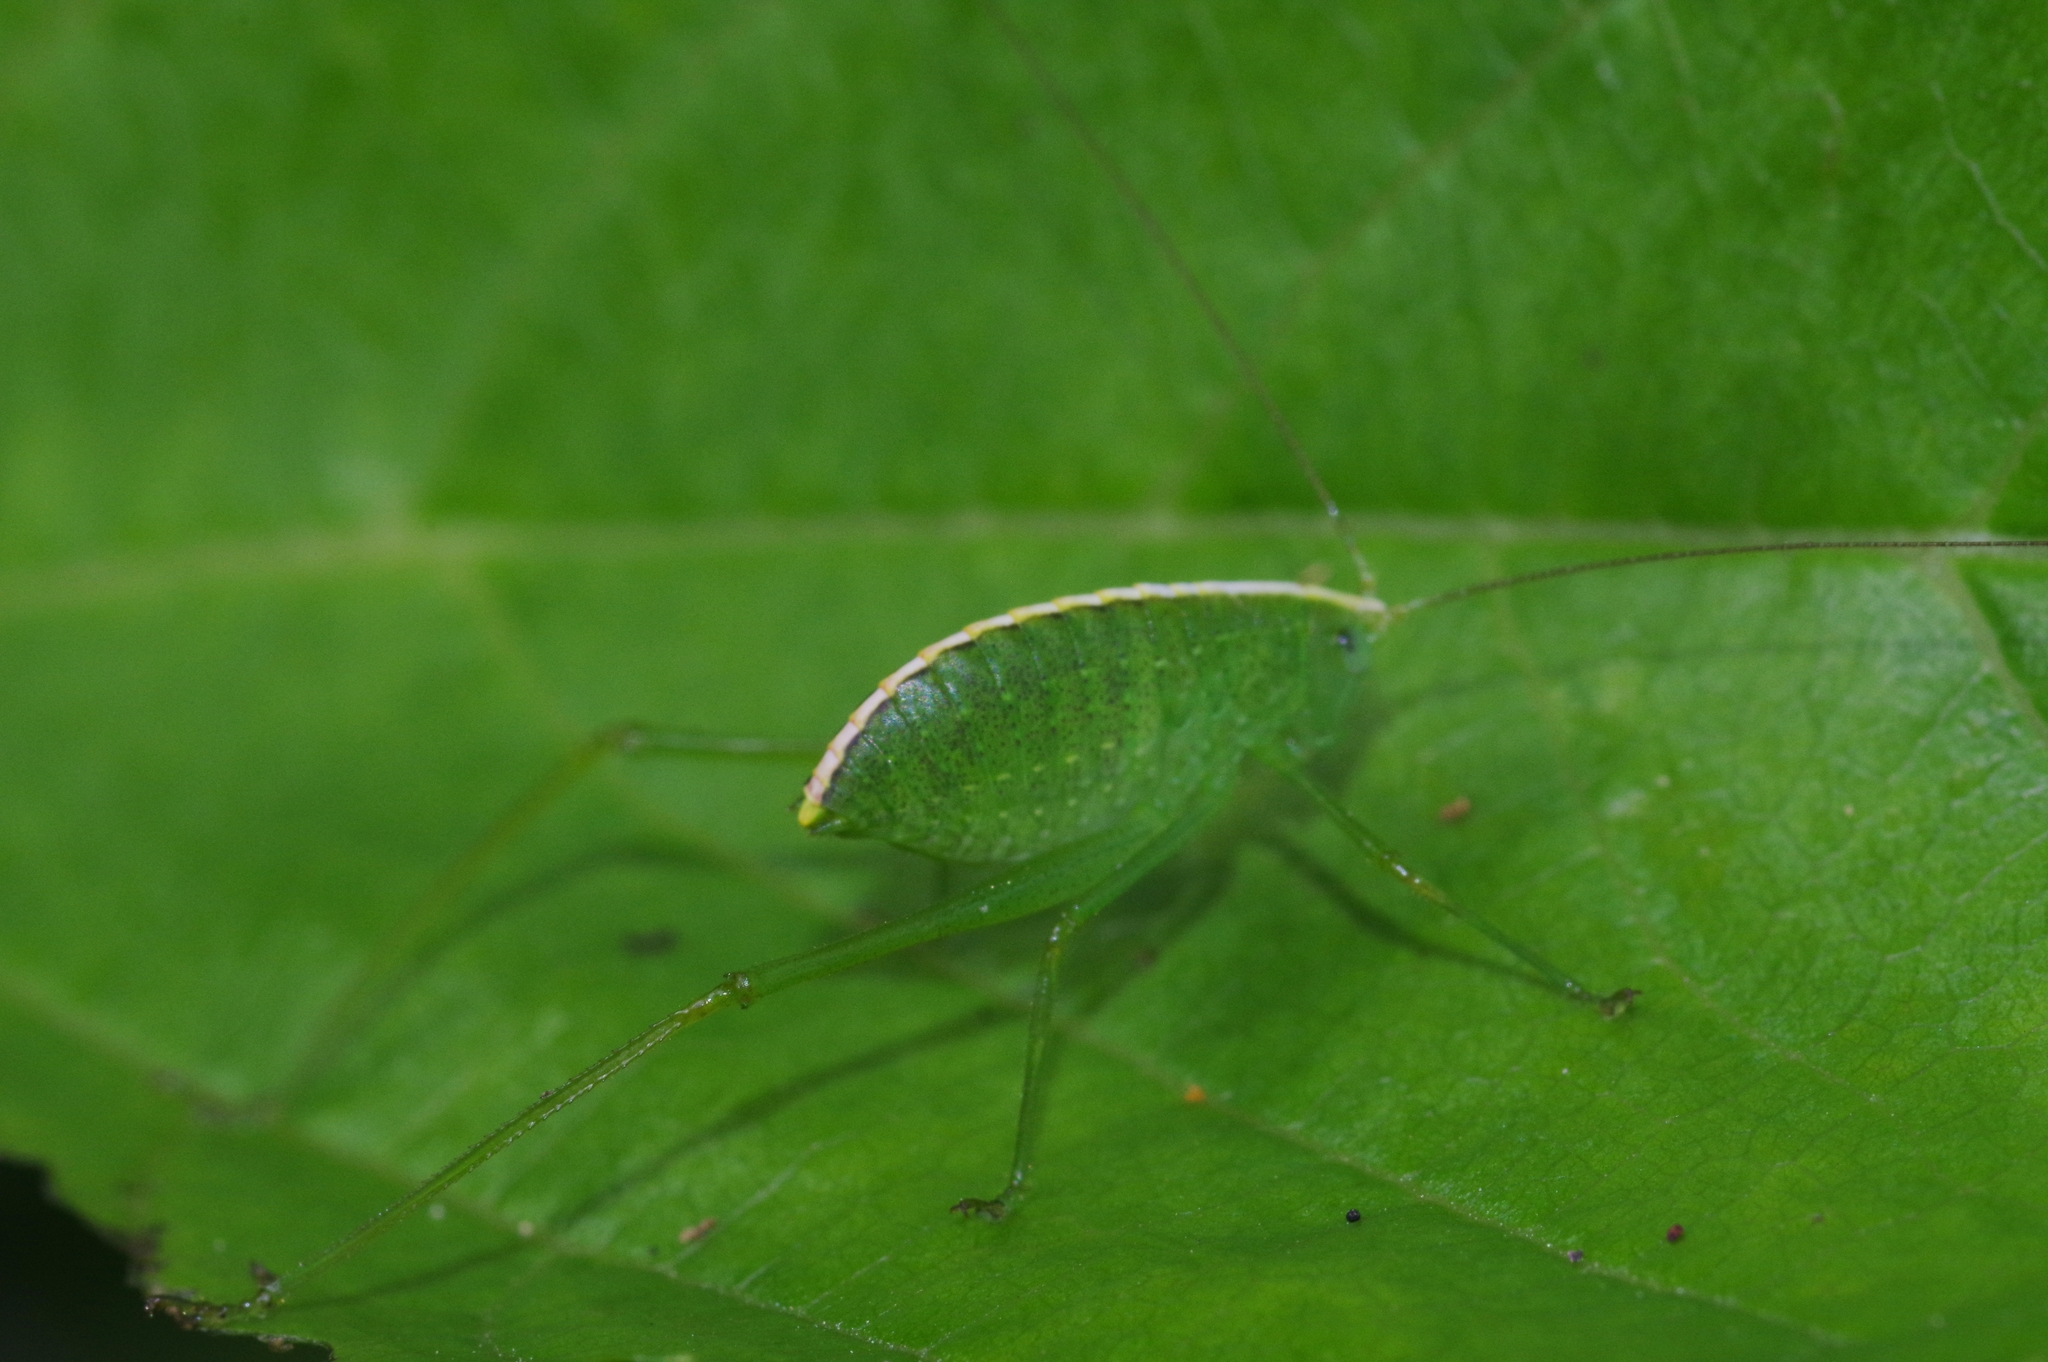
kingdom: Animalia
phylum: Arthropoda
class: Insecta
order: Orthoptera
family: Tettigoniidae
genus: Phaulula
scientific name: Phaulula daitoensis
